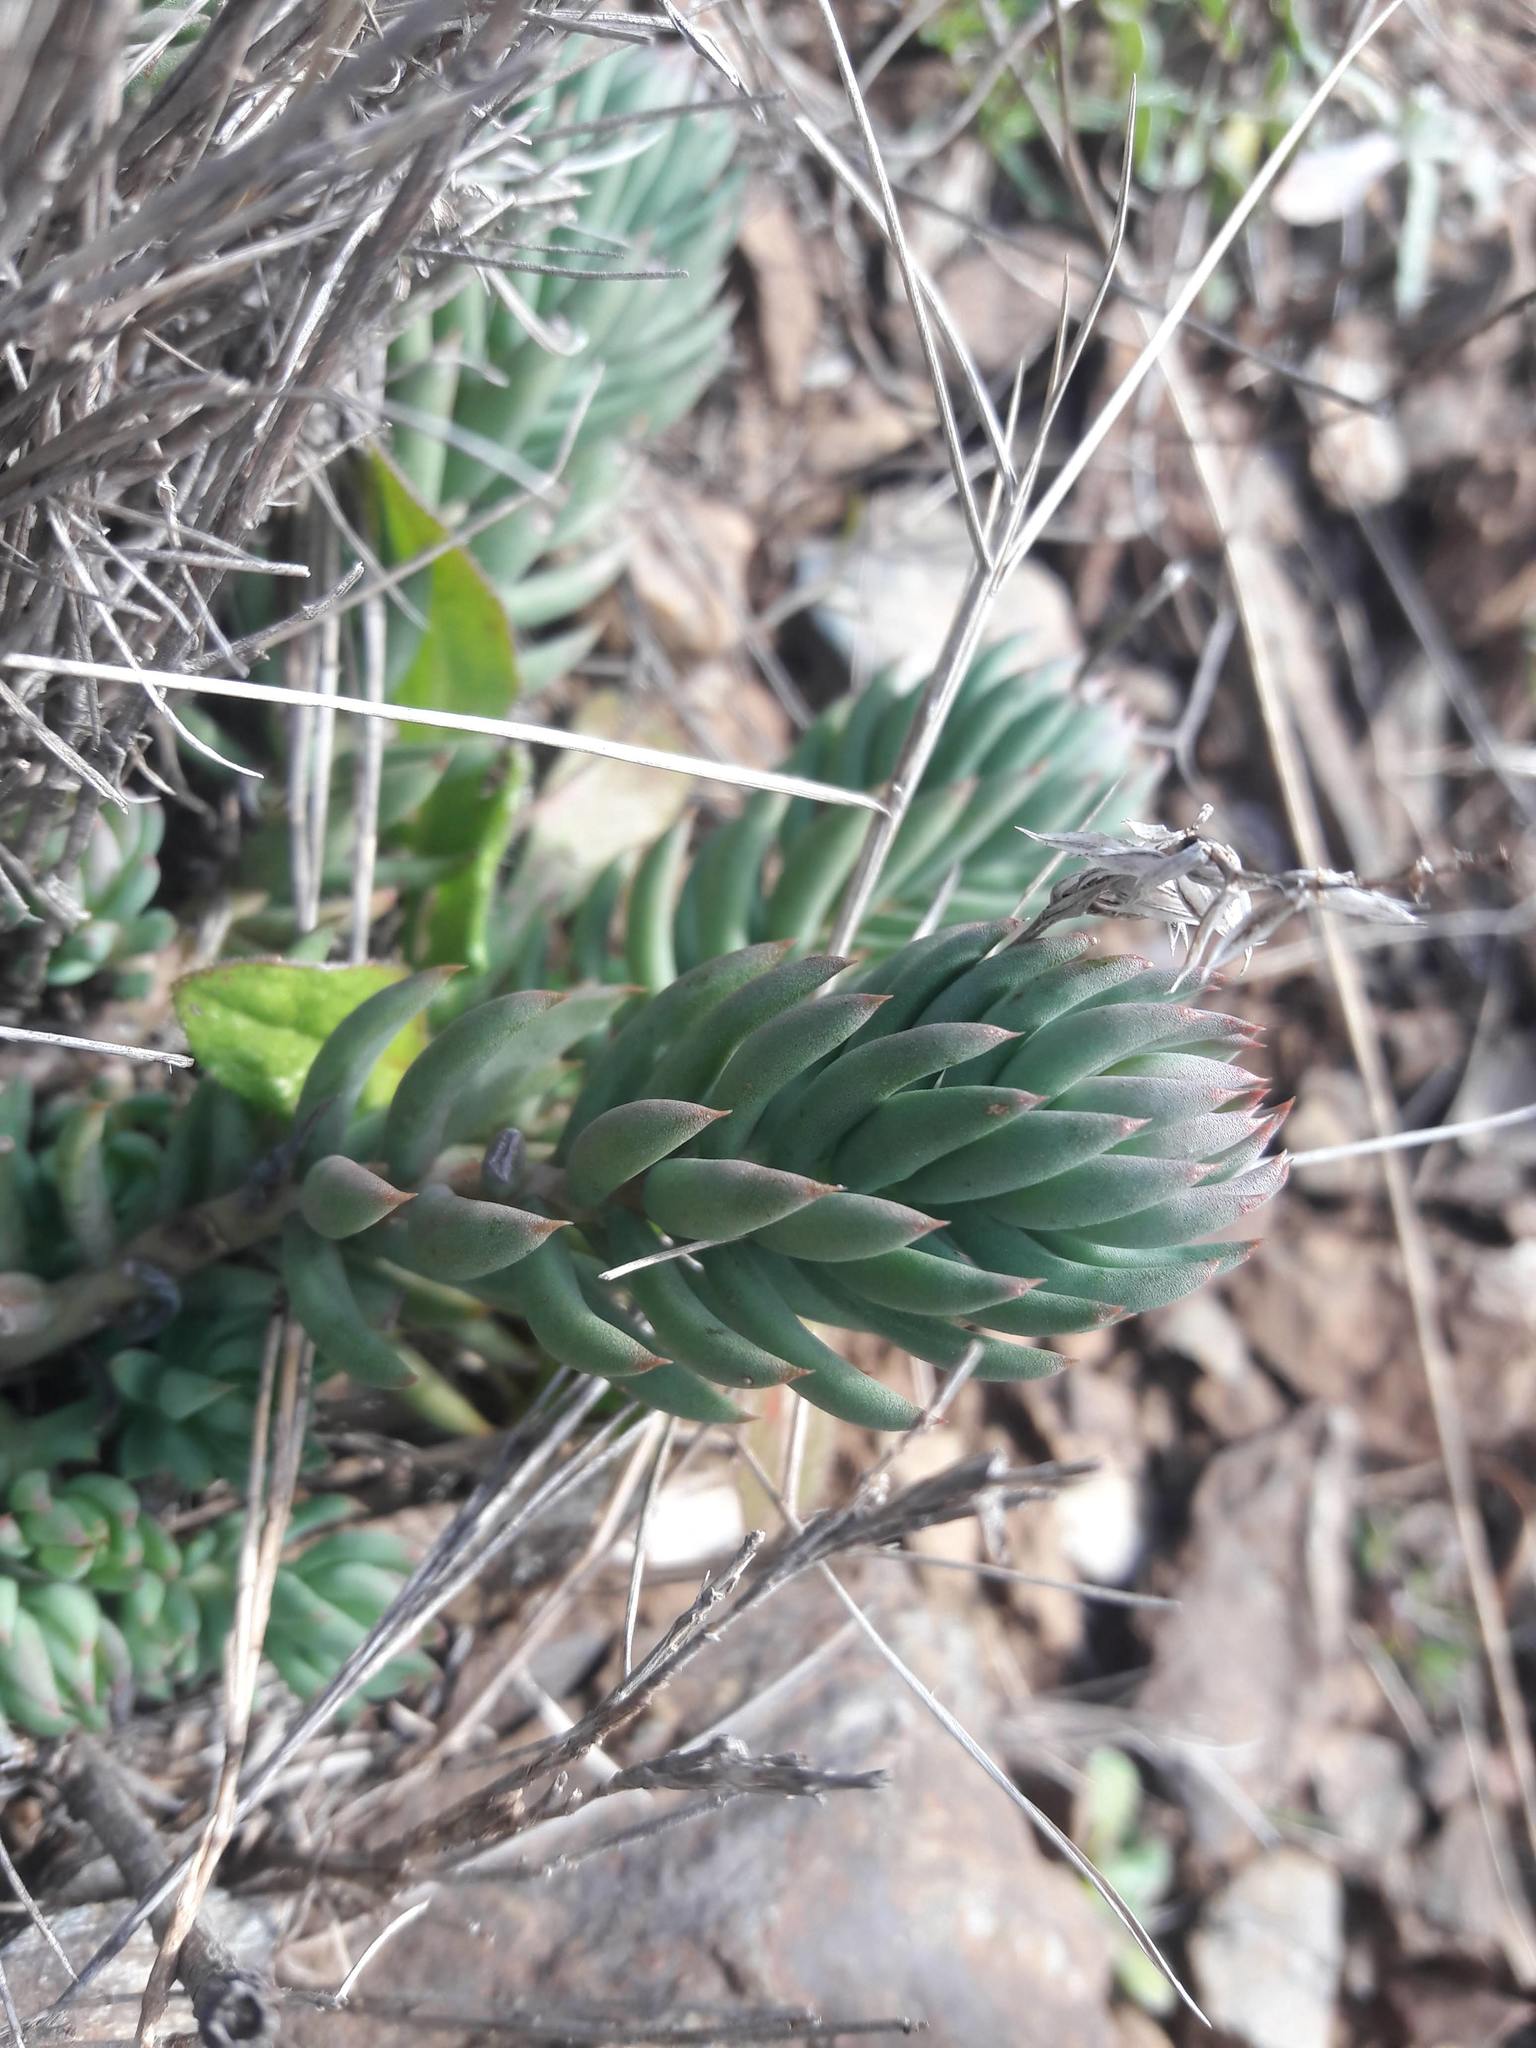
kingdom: Plantae
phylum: Tracheophyta
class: Magnoliopsida
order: Saxifragales
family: Crassulaceae
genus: Petrosedum
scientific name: Petrosedum sediforme
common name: Pale stonecrop
